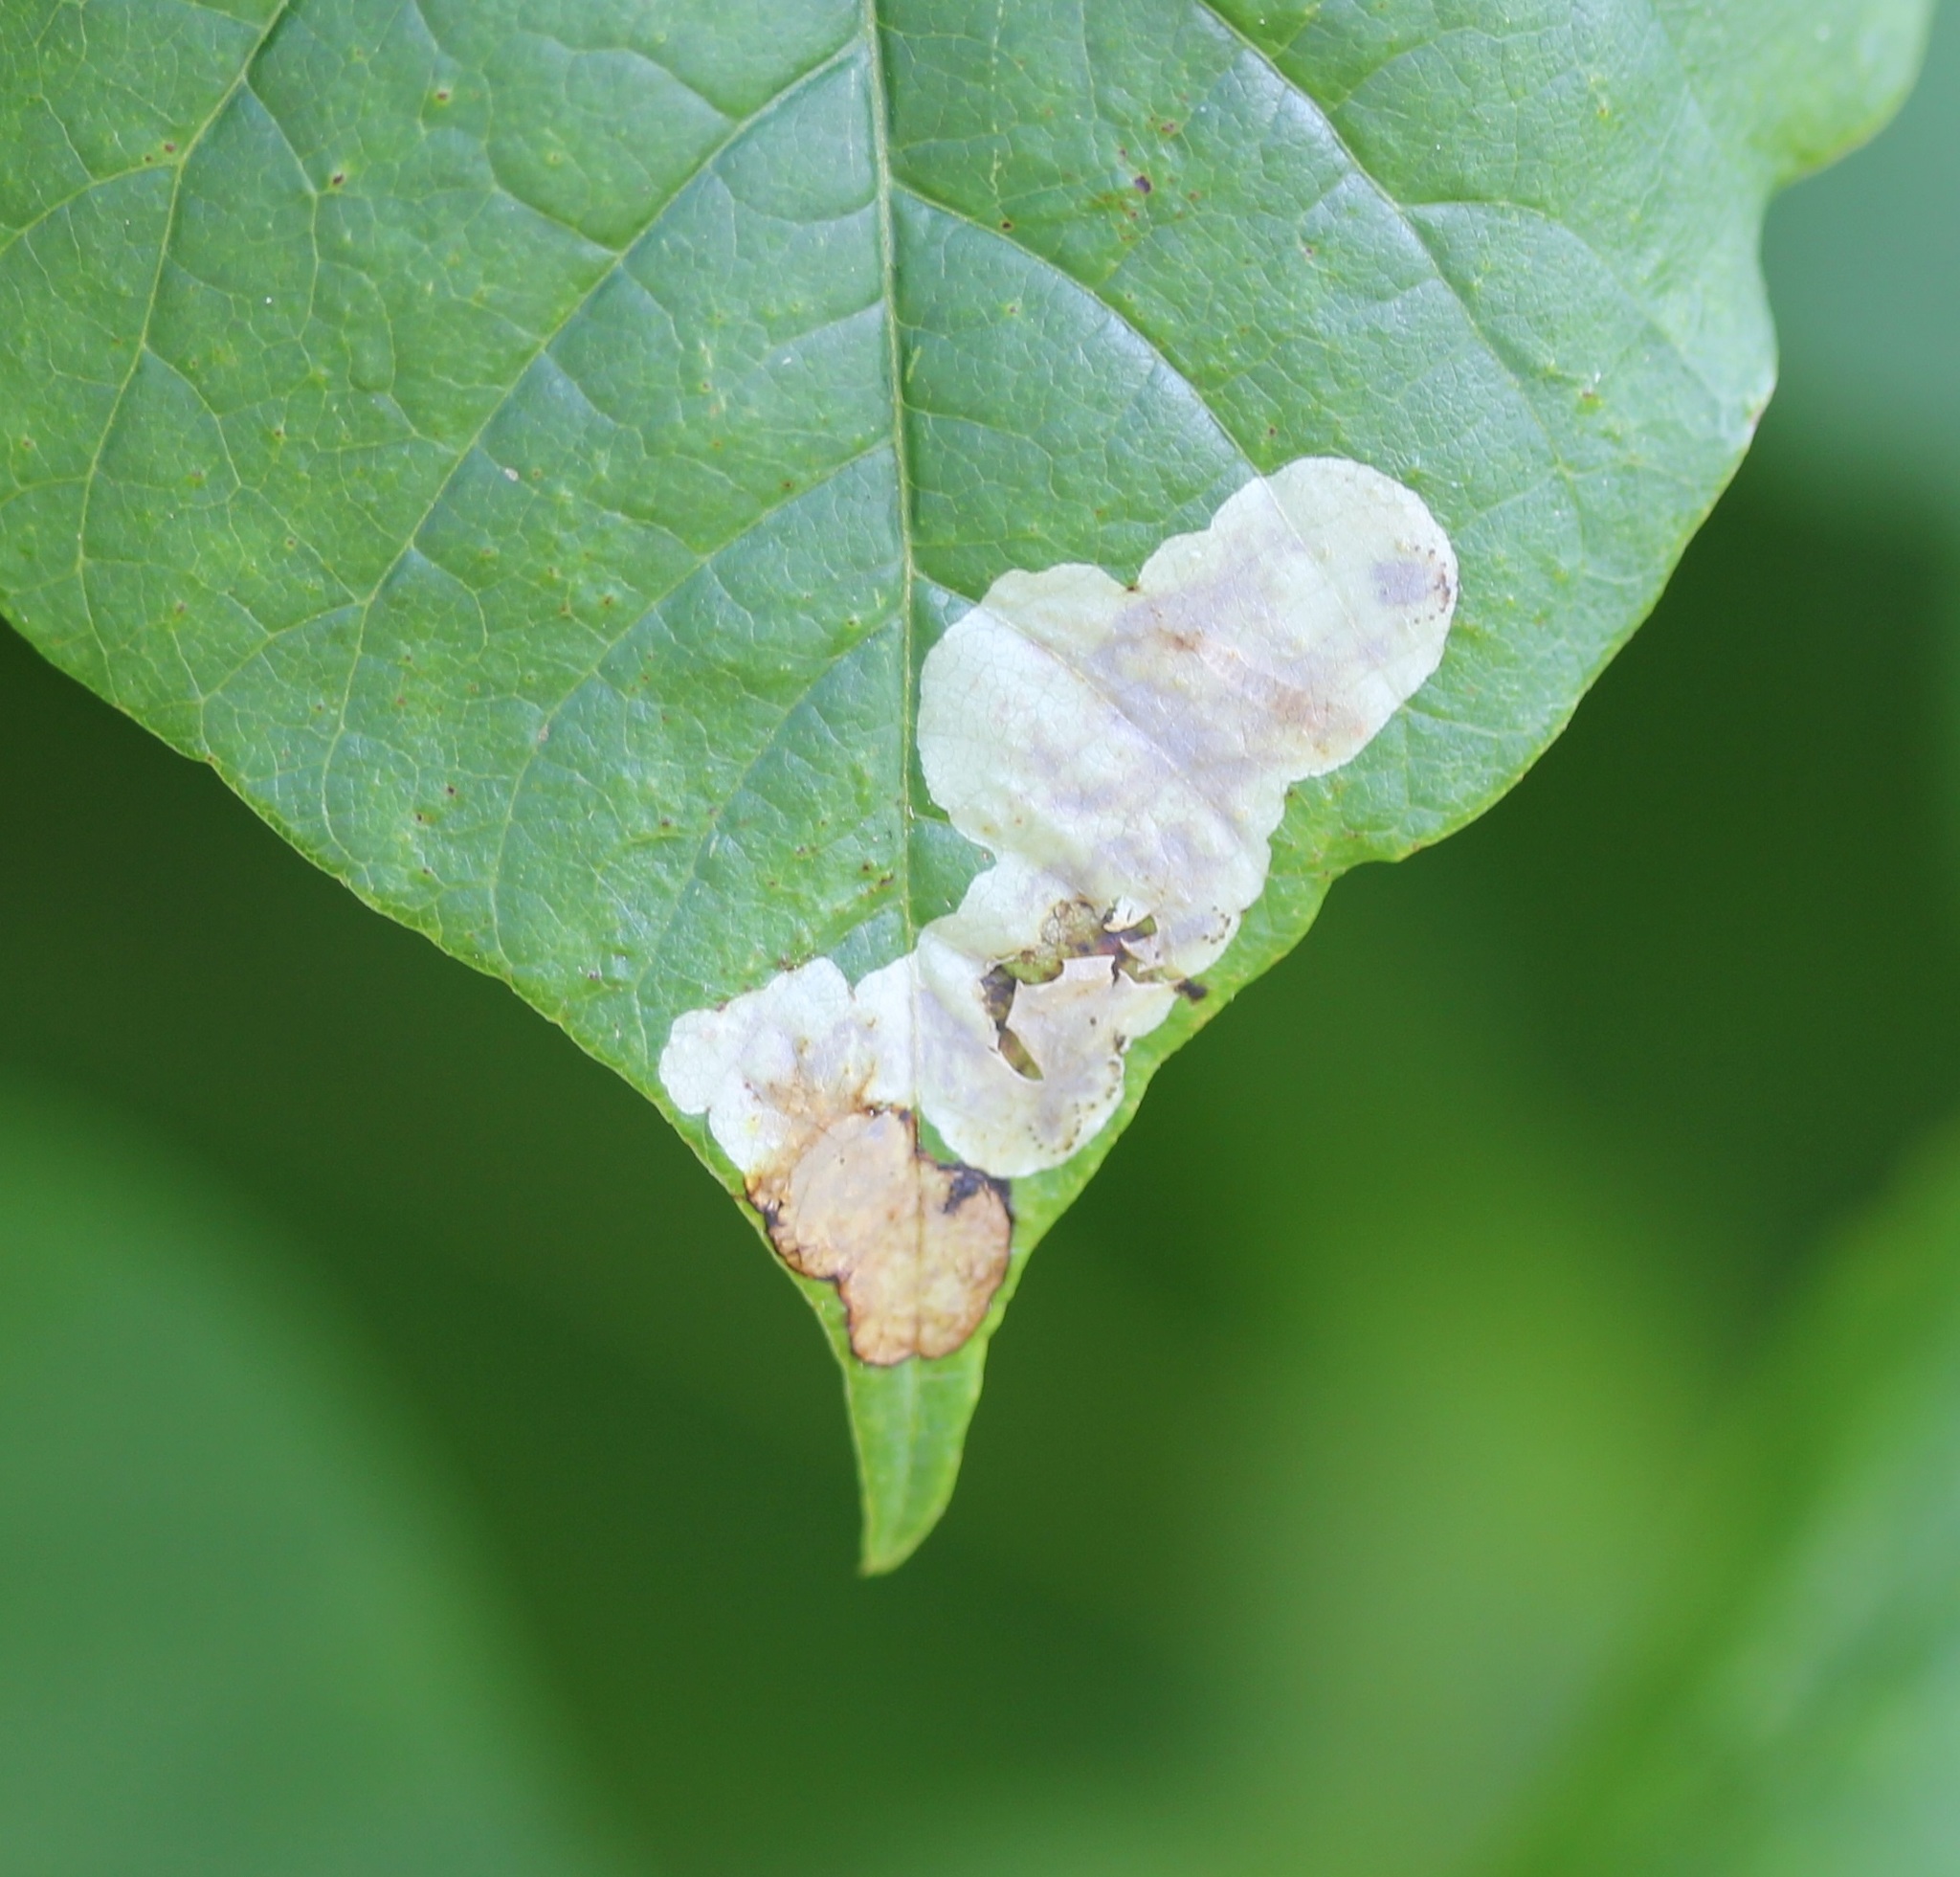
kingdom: Animalia
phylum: Arthropoda
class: Insecta
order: Lepidoptera
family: Gracillariidae
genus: Cameraria
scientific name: Cameraria guttifinitella
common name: Poison ivy leaf-miner moth
